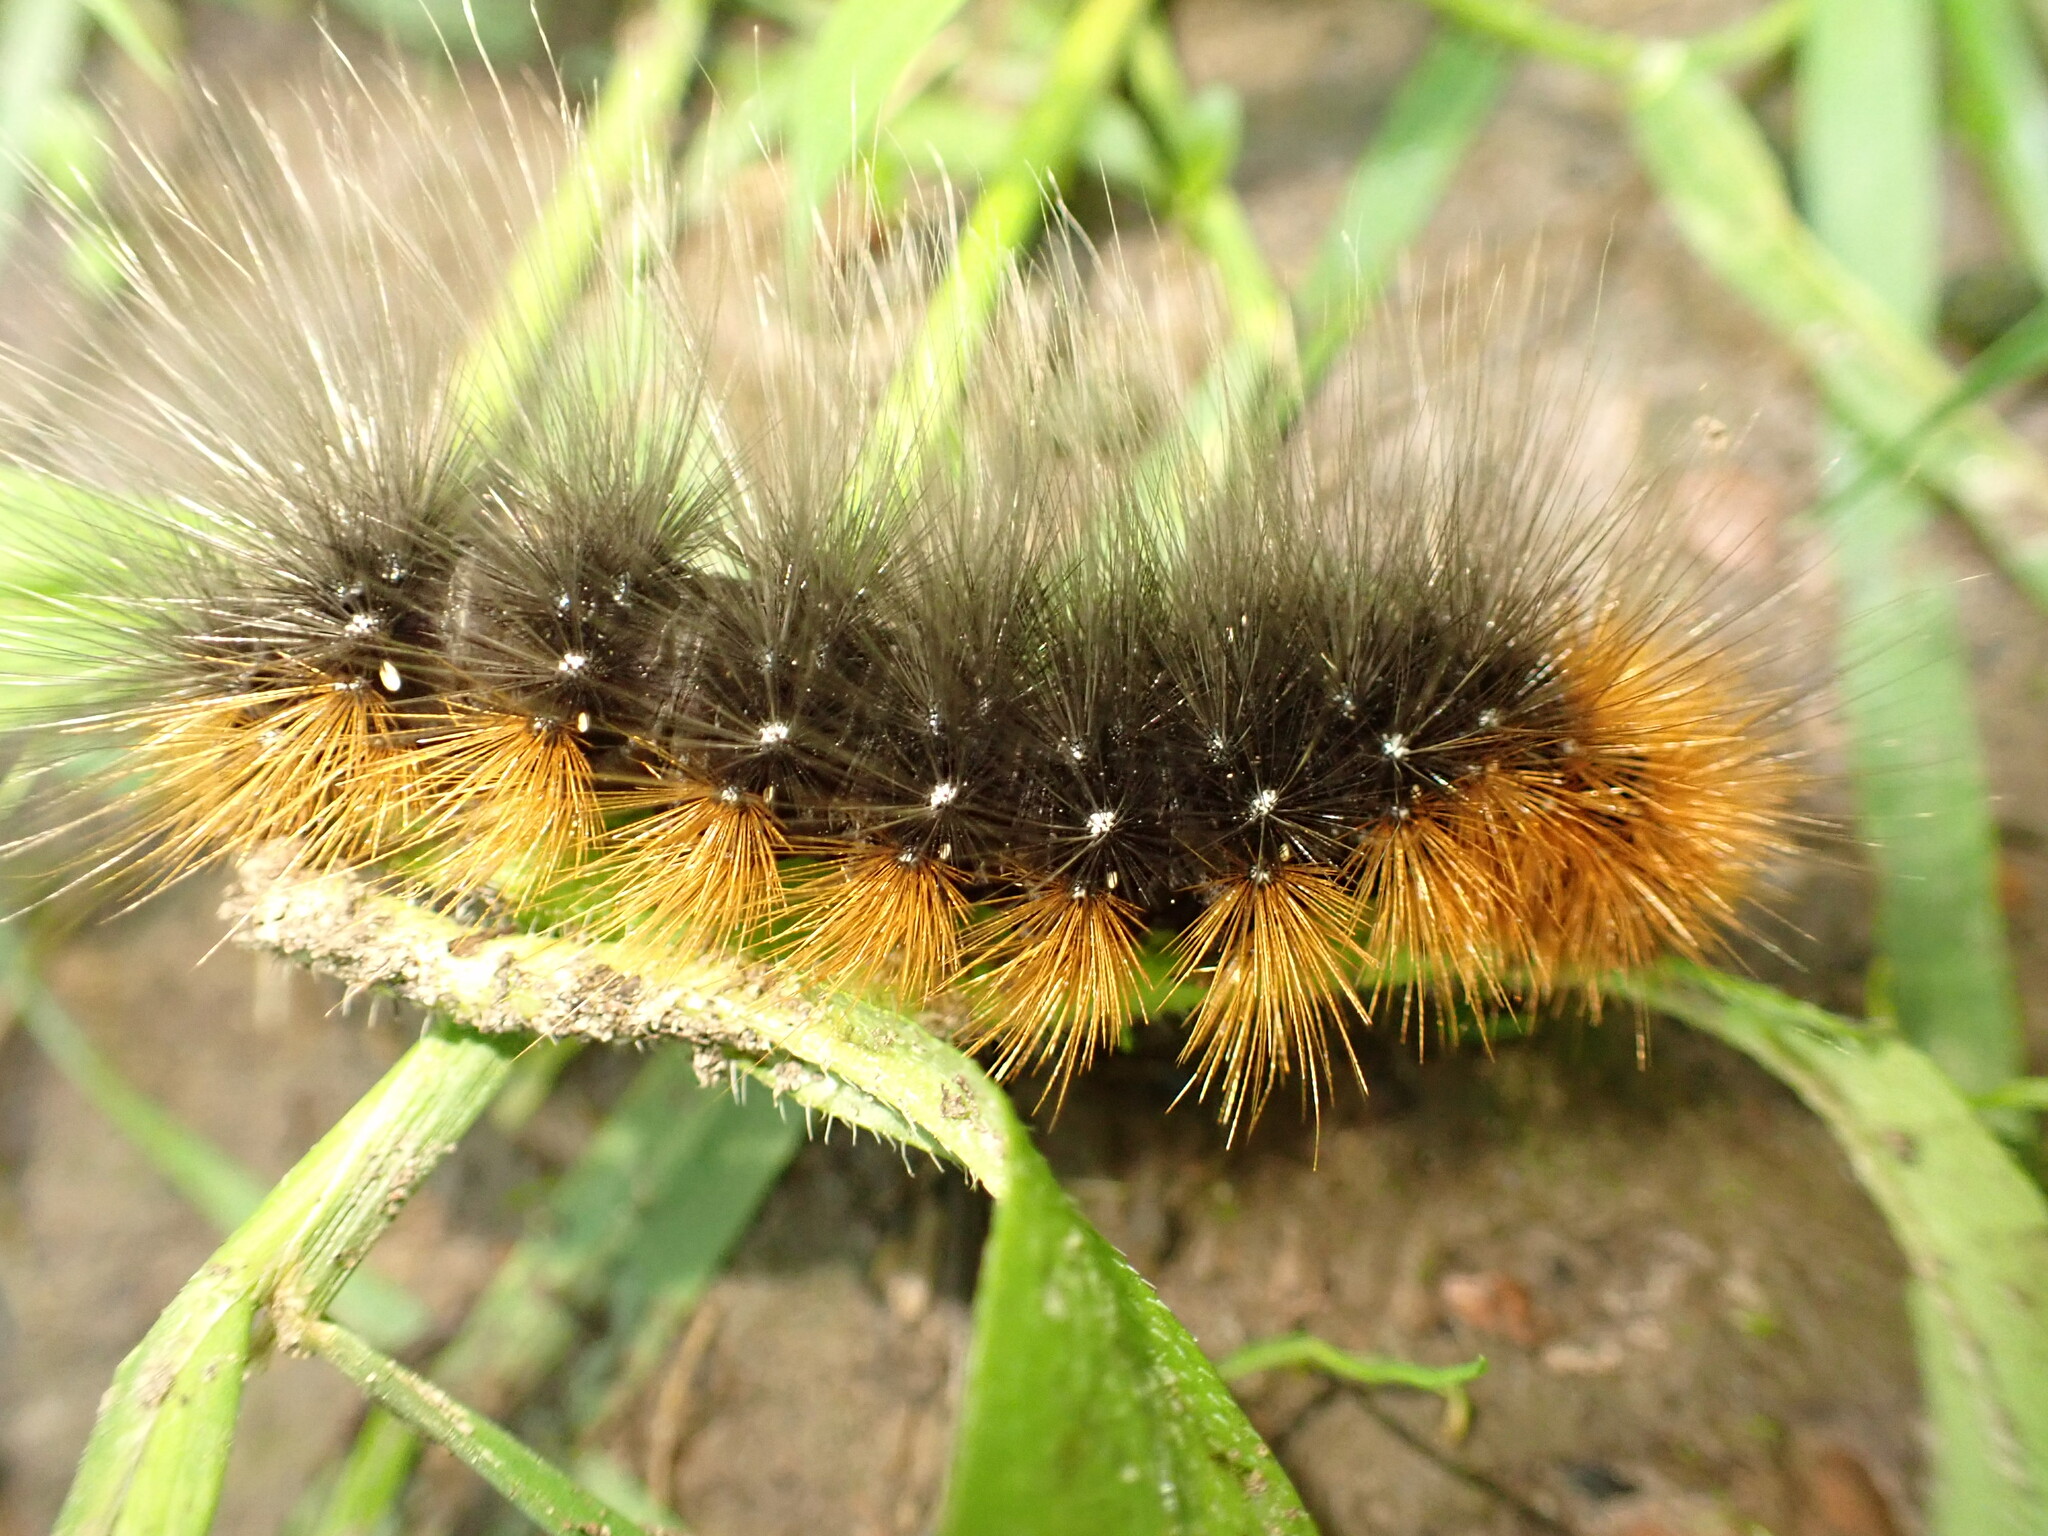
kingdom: Animalia
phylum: Arthropoda
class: Insecta
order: Lepidoptera
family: Erebidae
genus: Arctia
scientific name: Arctia caja
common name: Garden tiger
